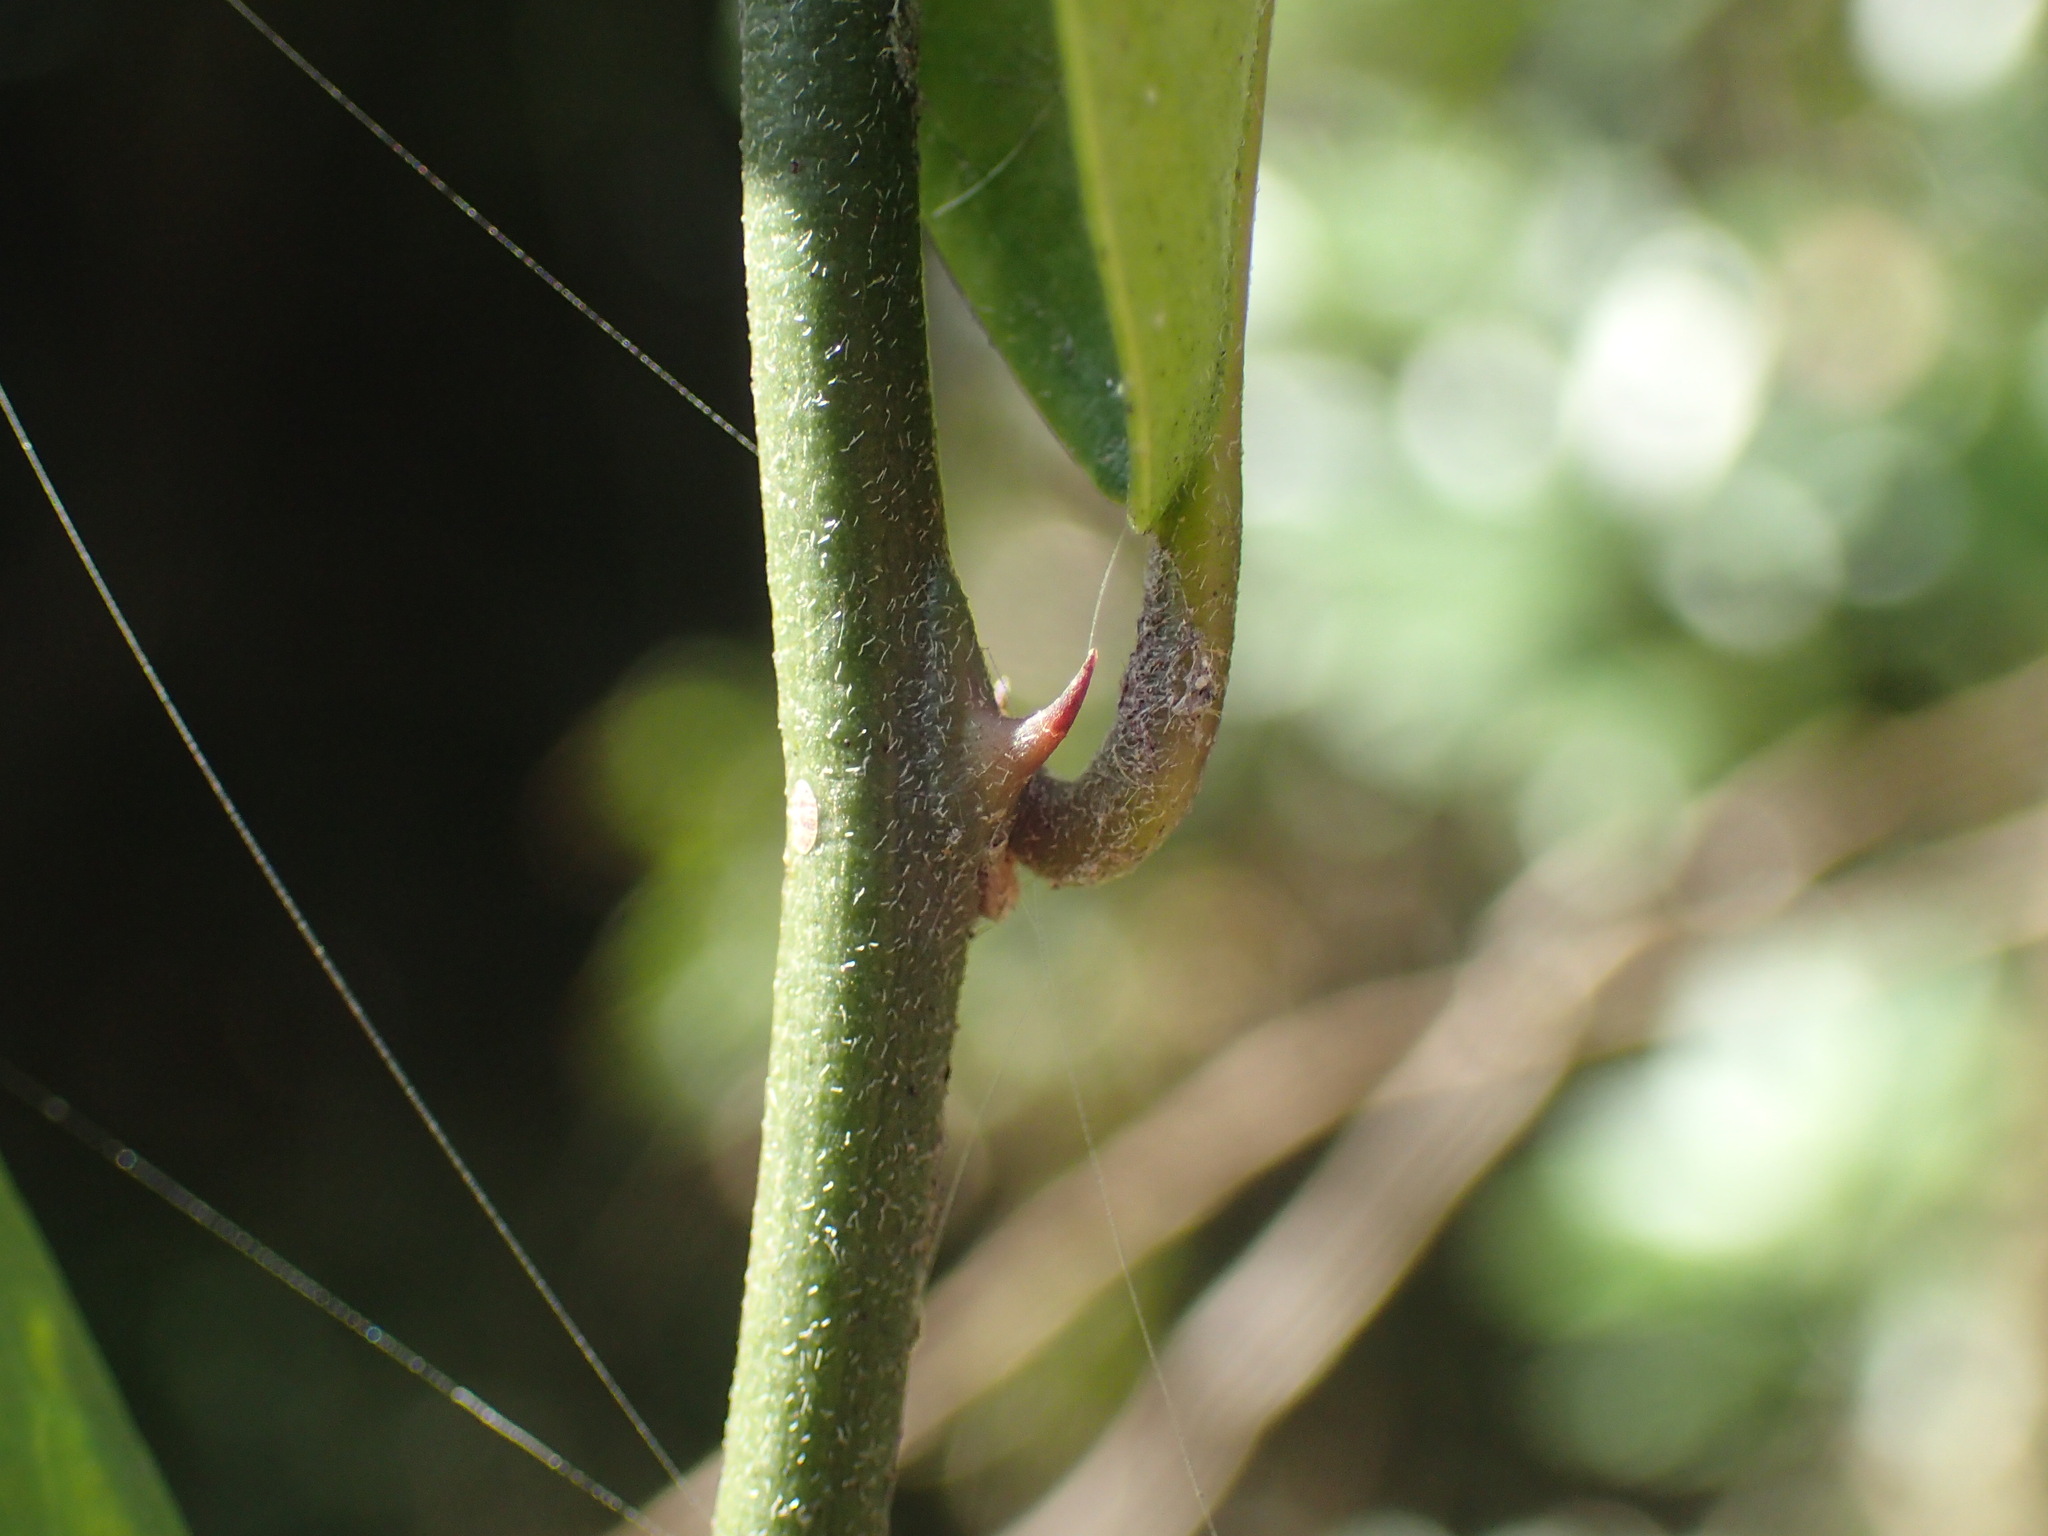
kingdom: Plantae
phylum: Tracheophyta
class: Magnoliopsida
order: Brassicales
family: Capparaceae
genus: Capparis
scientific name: Capparis tomentosa
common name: African caper
